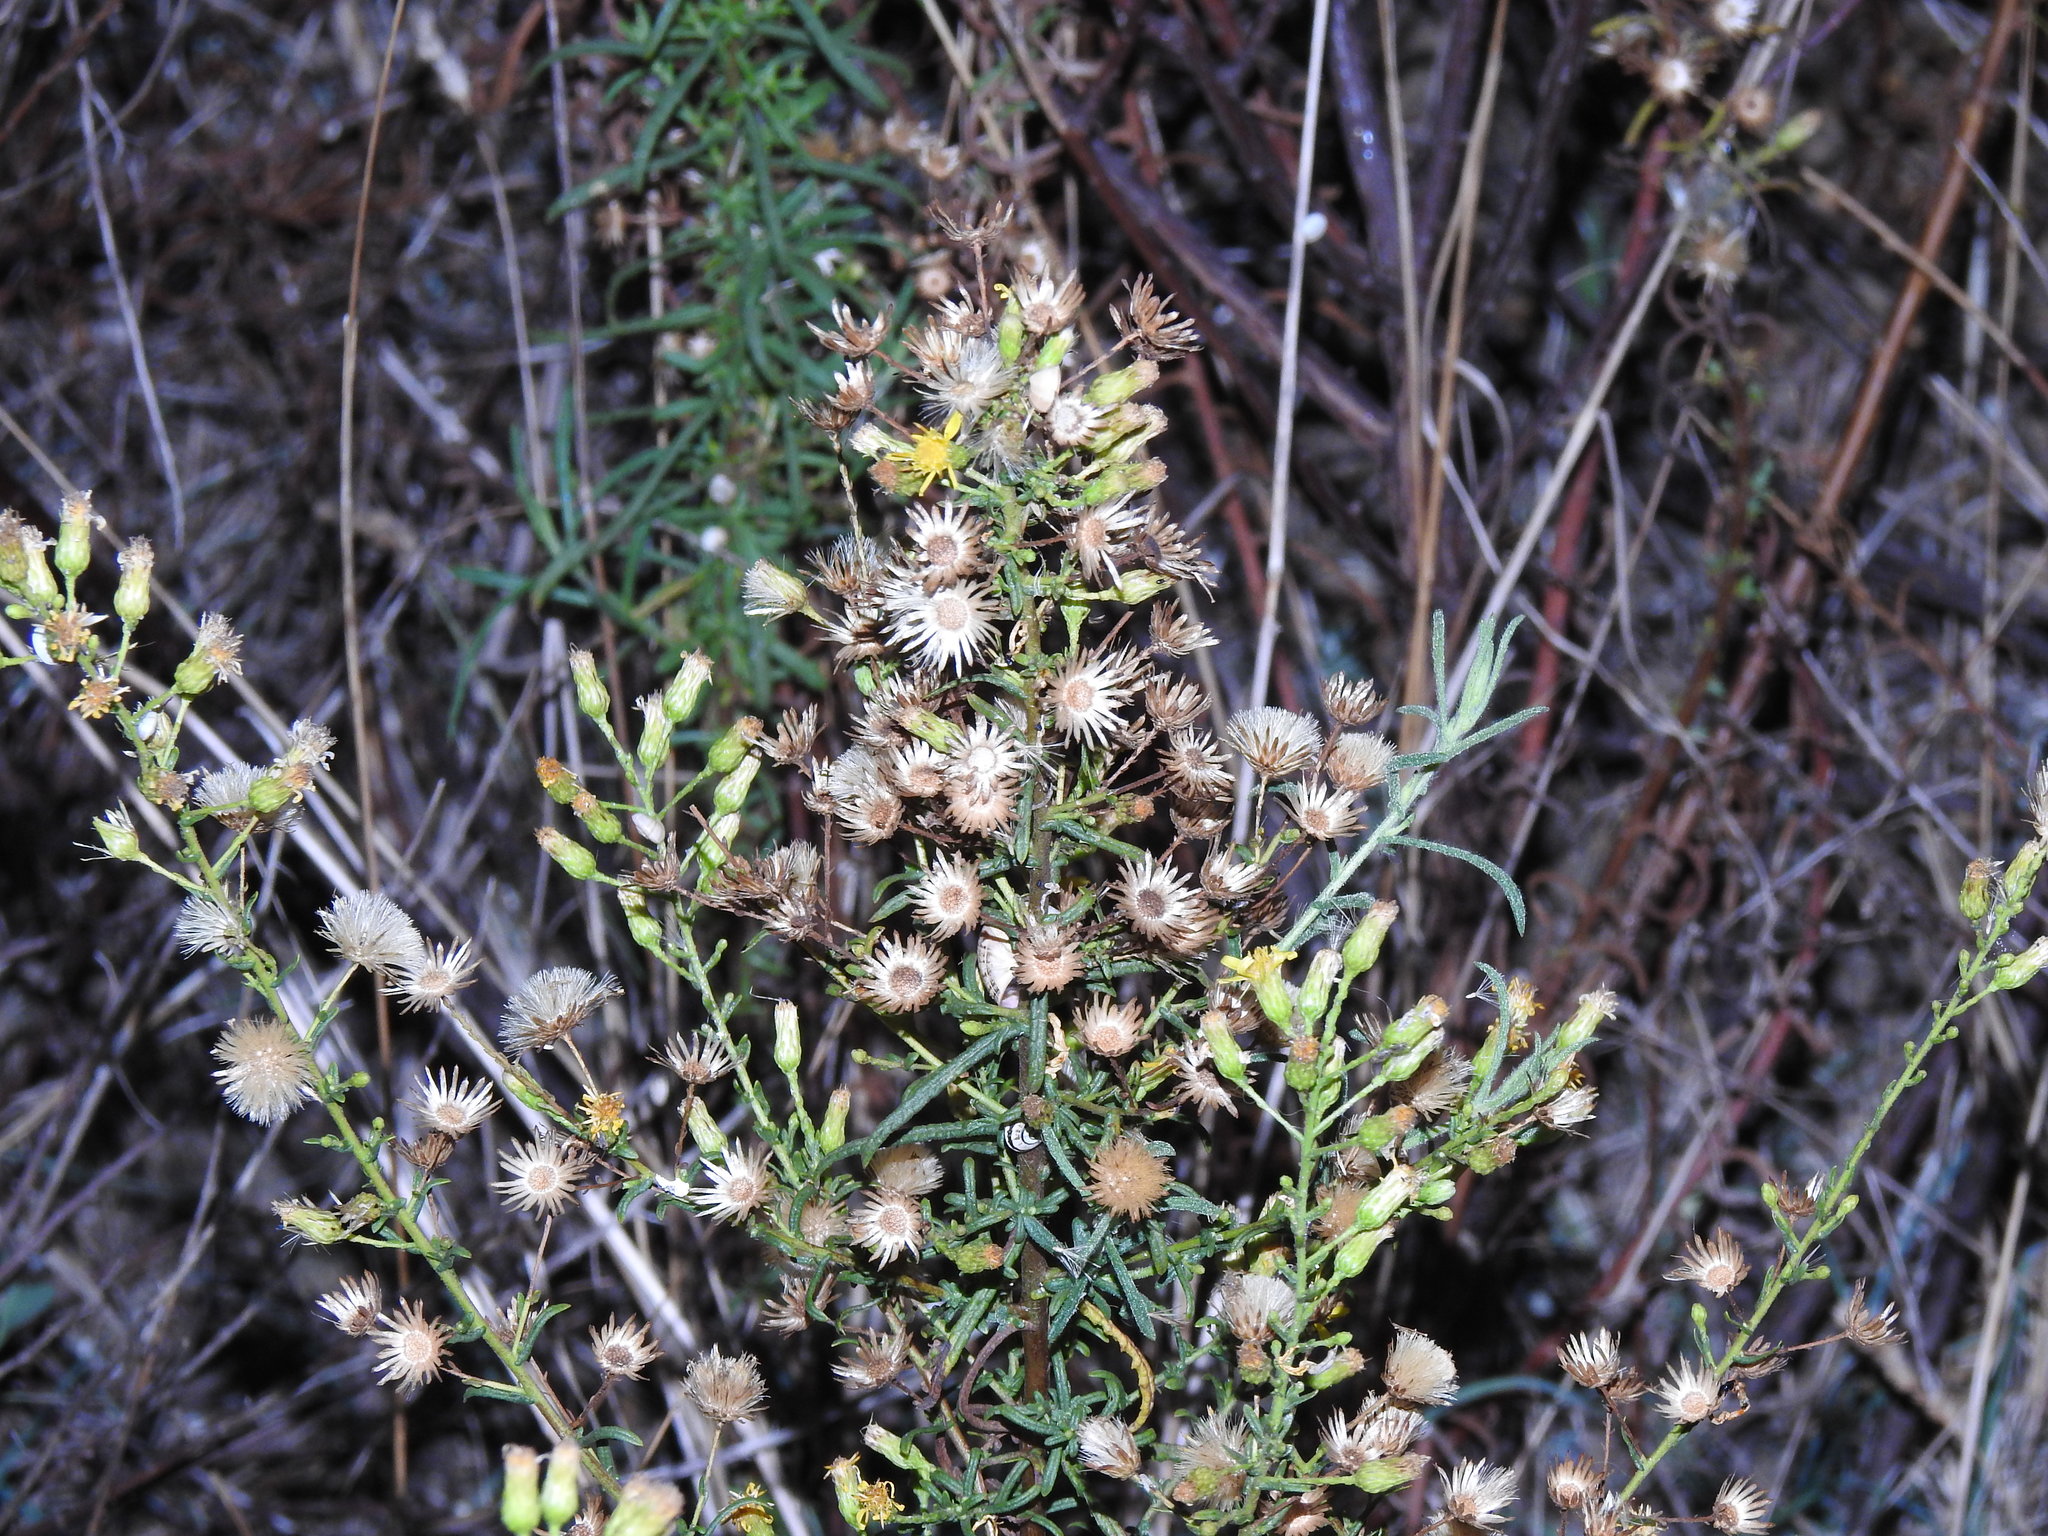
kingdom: Plantae
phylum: Tracheophyta
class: Magnoliopsida
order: Asterales
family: Asteraceae
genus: Dittrichia
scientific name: Dittrichia viscosa
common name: Woody fleabane
